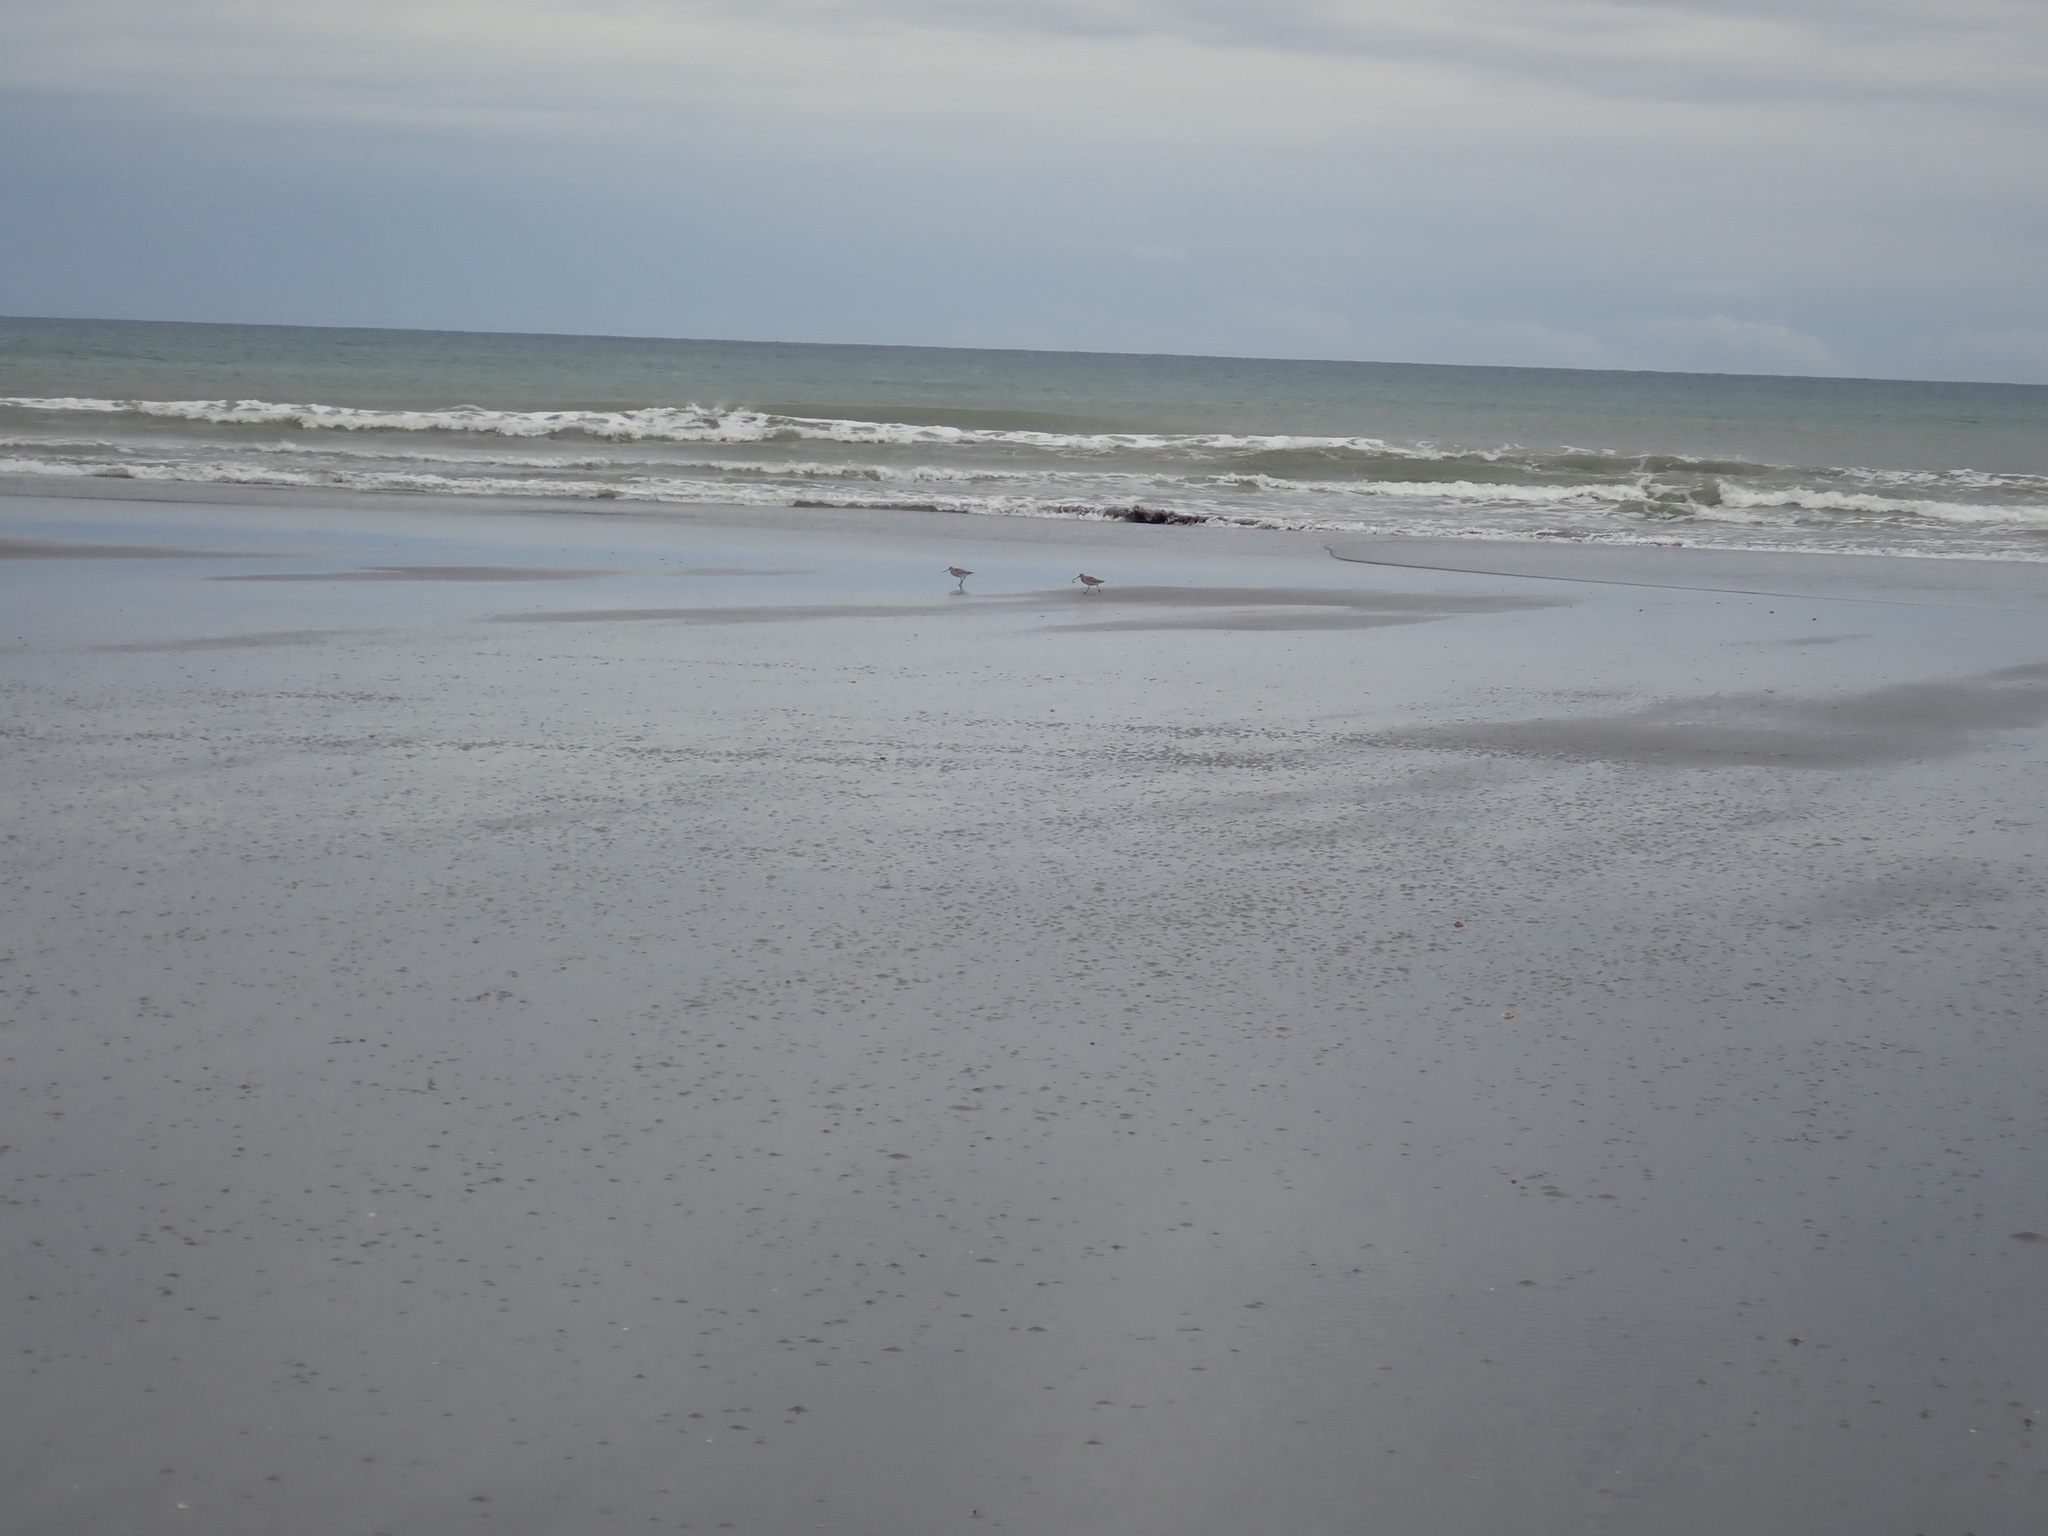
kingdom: Animalia
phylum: Chordata
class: Aves
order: Charadriiformes
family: Scolopacidae
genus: Limosa
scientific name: Limosa lapponica
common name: Bar-tailed godwit
